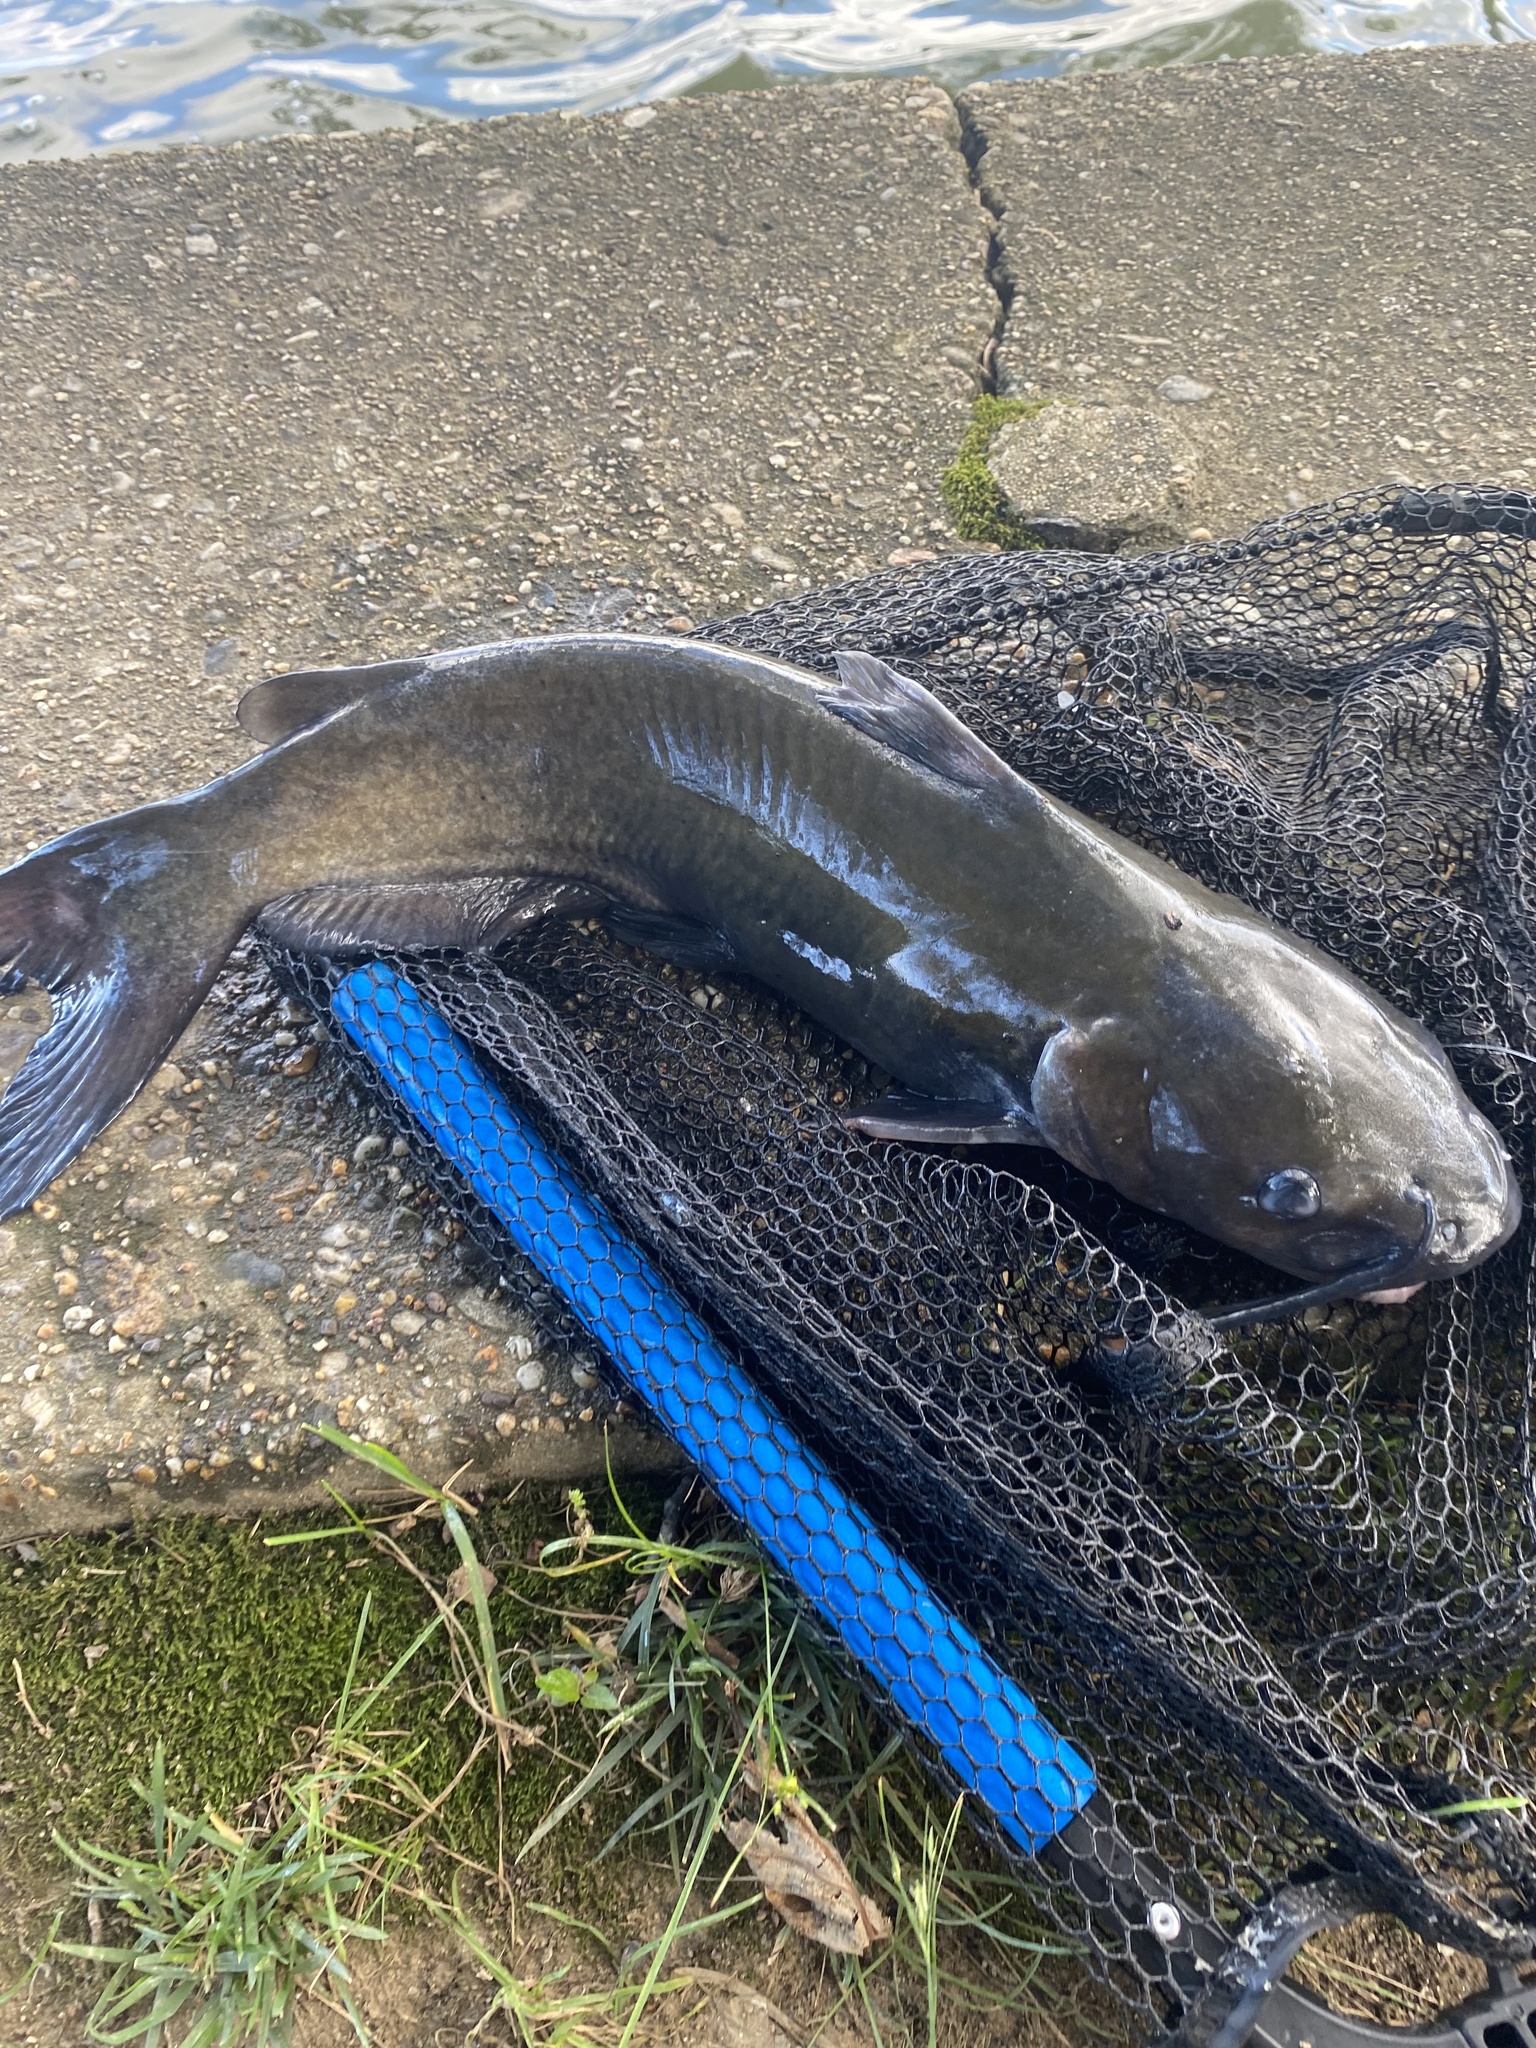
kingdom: Animalia
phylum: Chordata
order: Siluriformes
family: Ictaluridae
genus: Ictalurus
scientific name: Ictalurus punctatus
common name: Channel catfish
